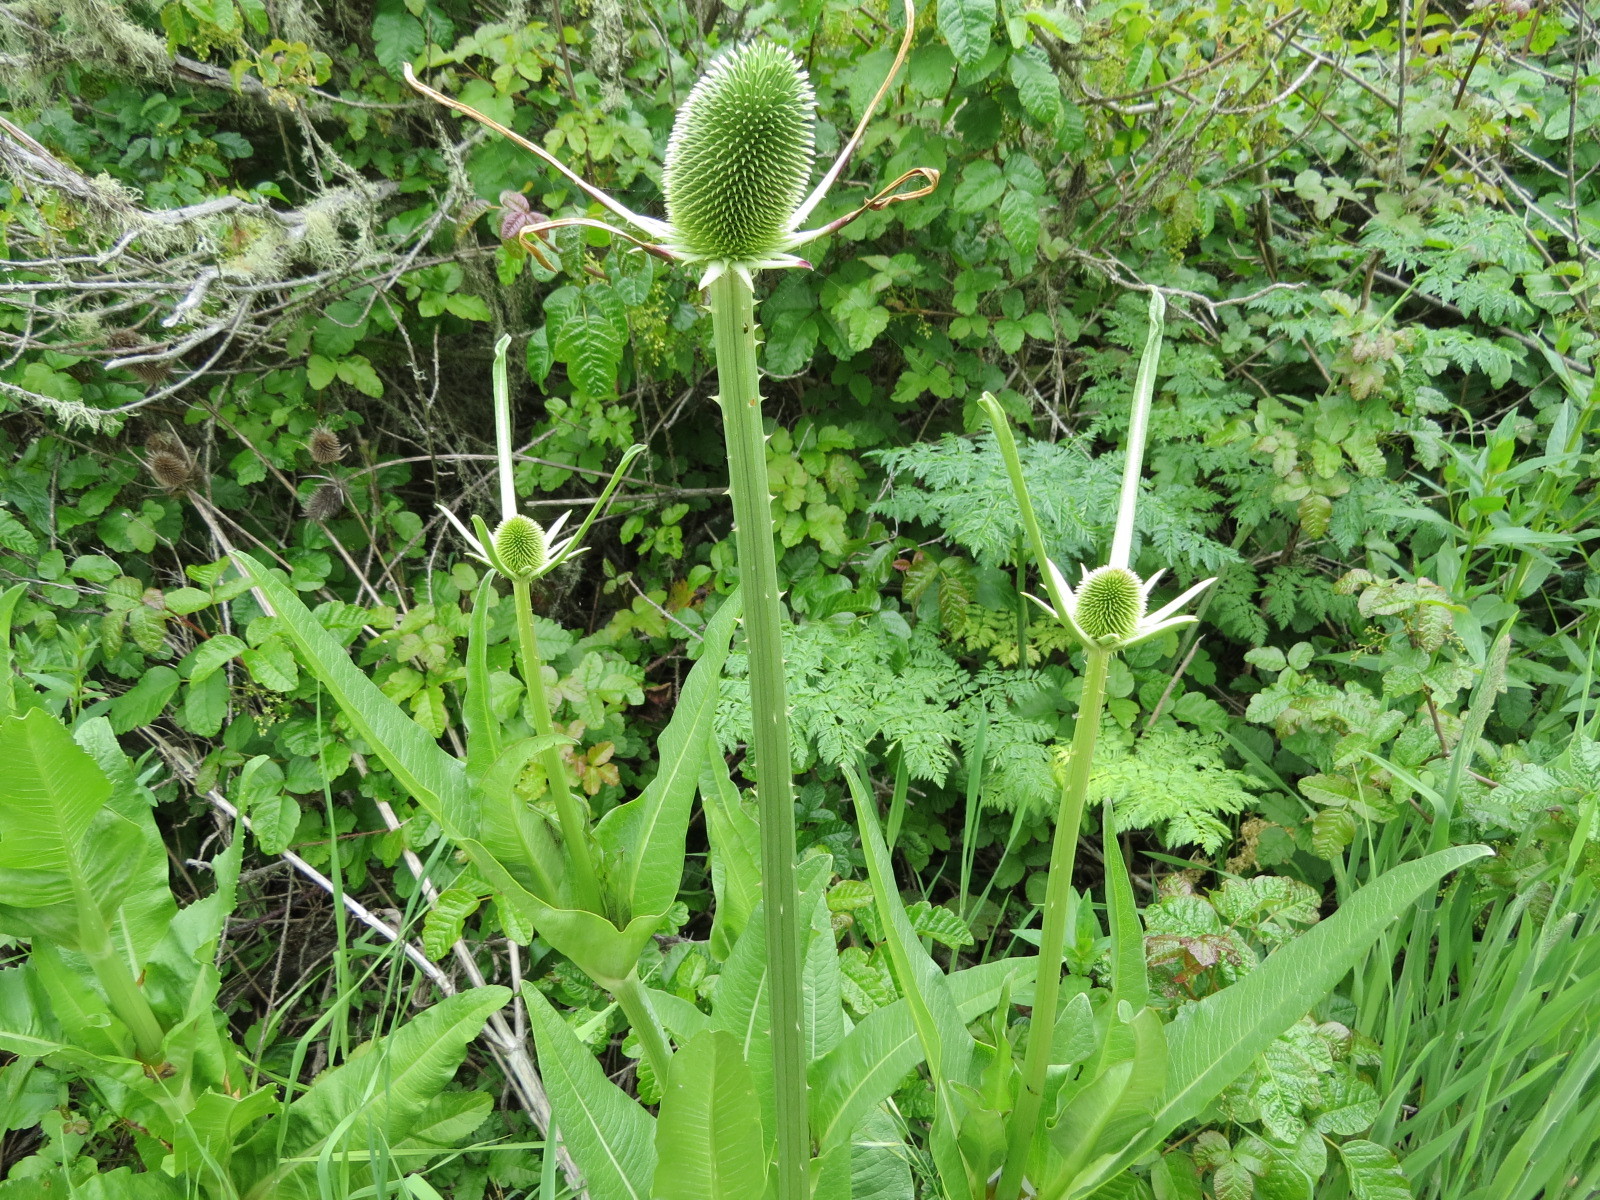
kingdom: Plantae
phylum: Tracheophyta
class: Magnoliopsida
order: Dipsacales
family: Caprifoliaceae
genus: Dipsacus
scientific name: Dipsacus sativus
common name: Fuller's teasel
